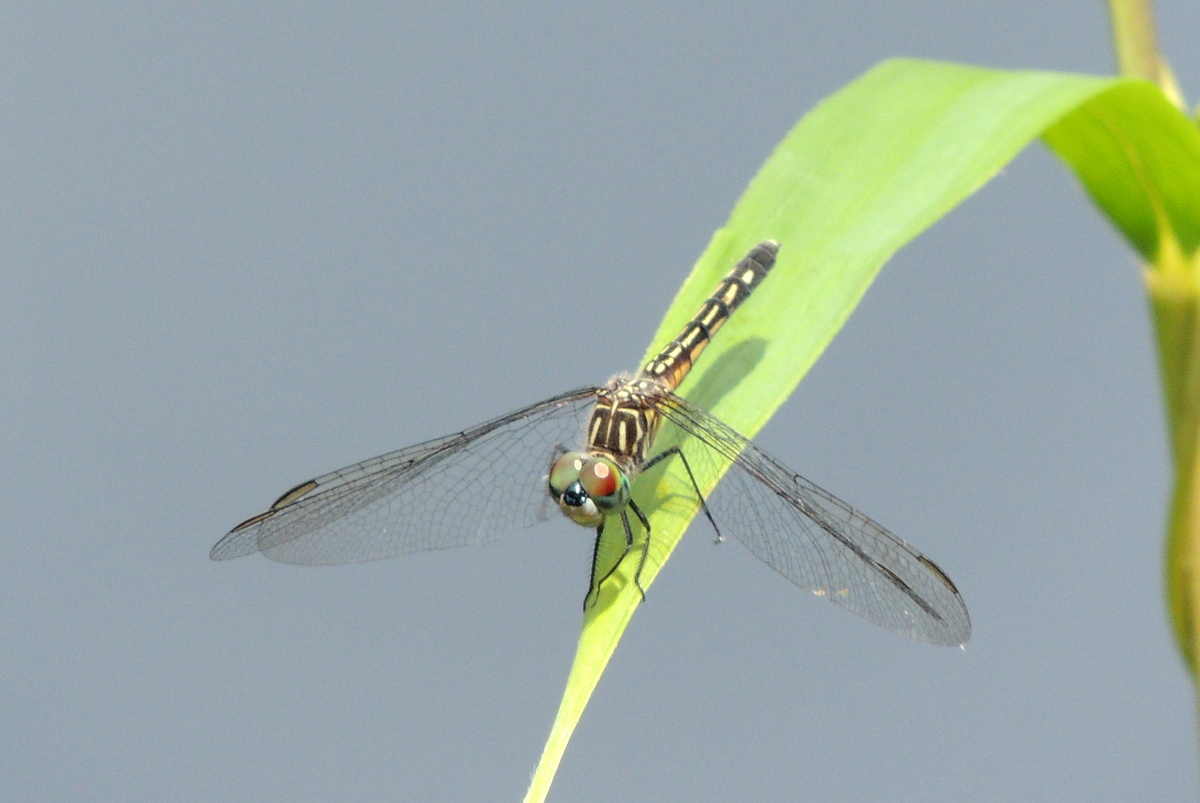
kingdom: Animalia
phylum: Arthropoda
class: Insecta
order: Odonata
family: Libellulidae
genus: Pachydiplax
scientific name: Pachydiplax longipennis
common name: Blue dasher
